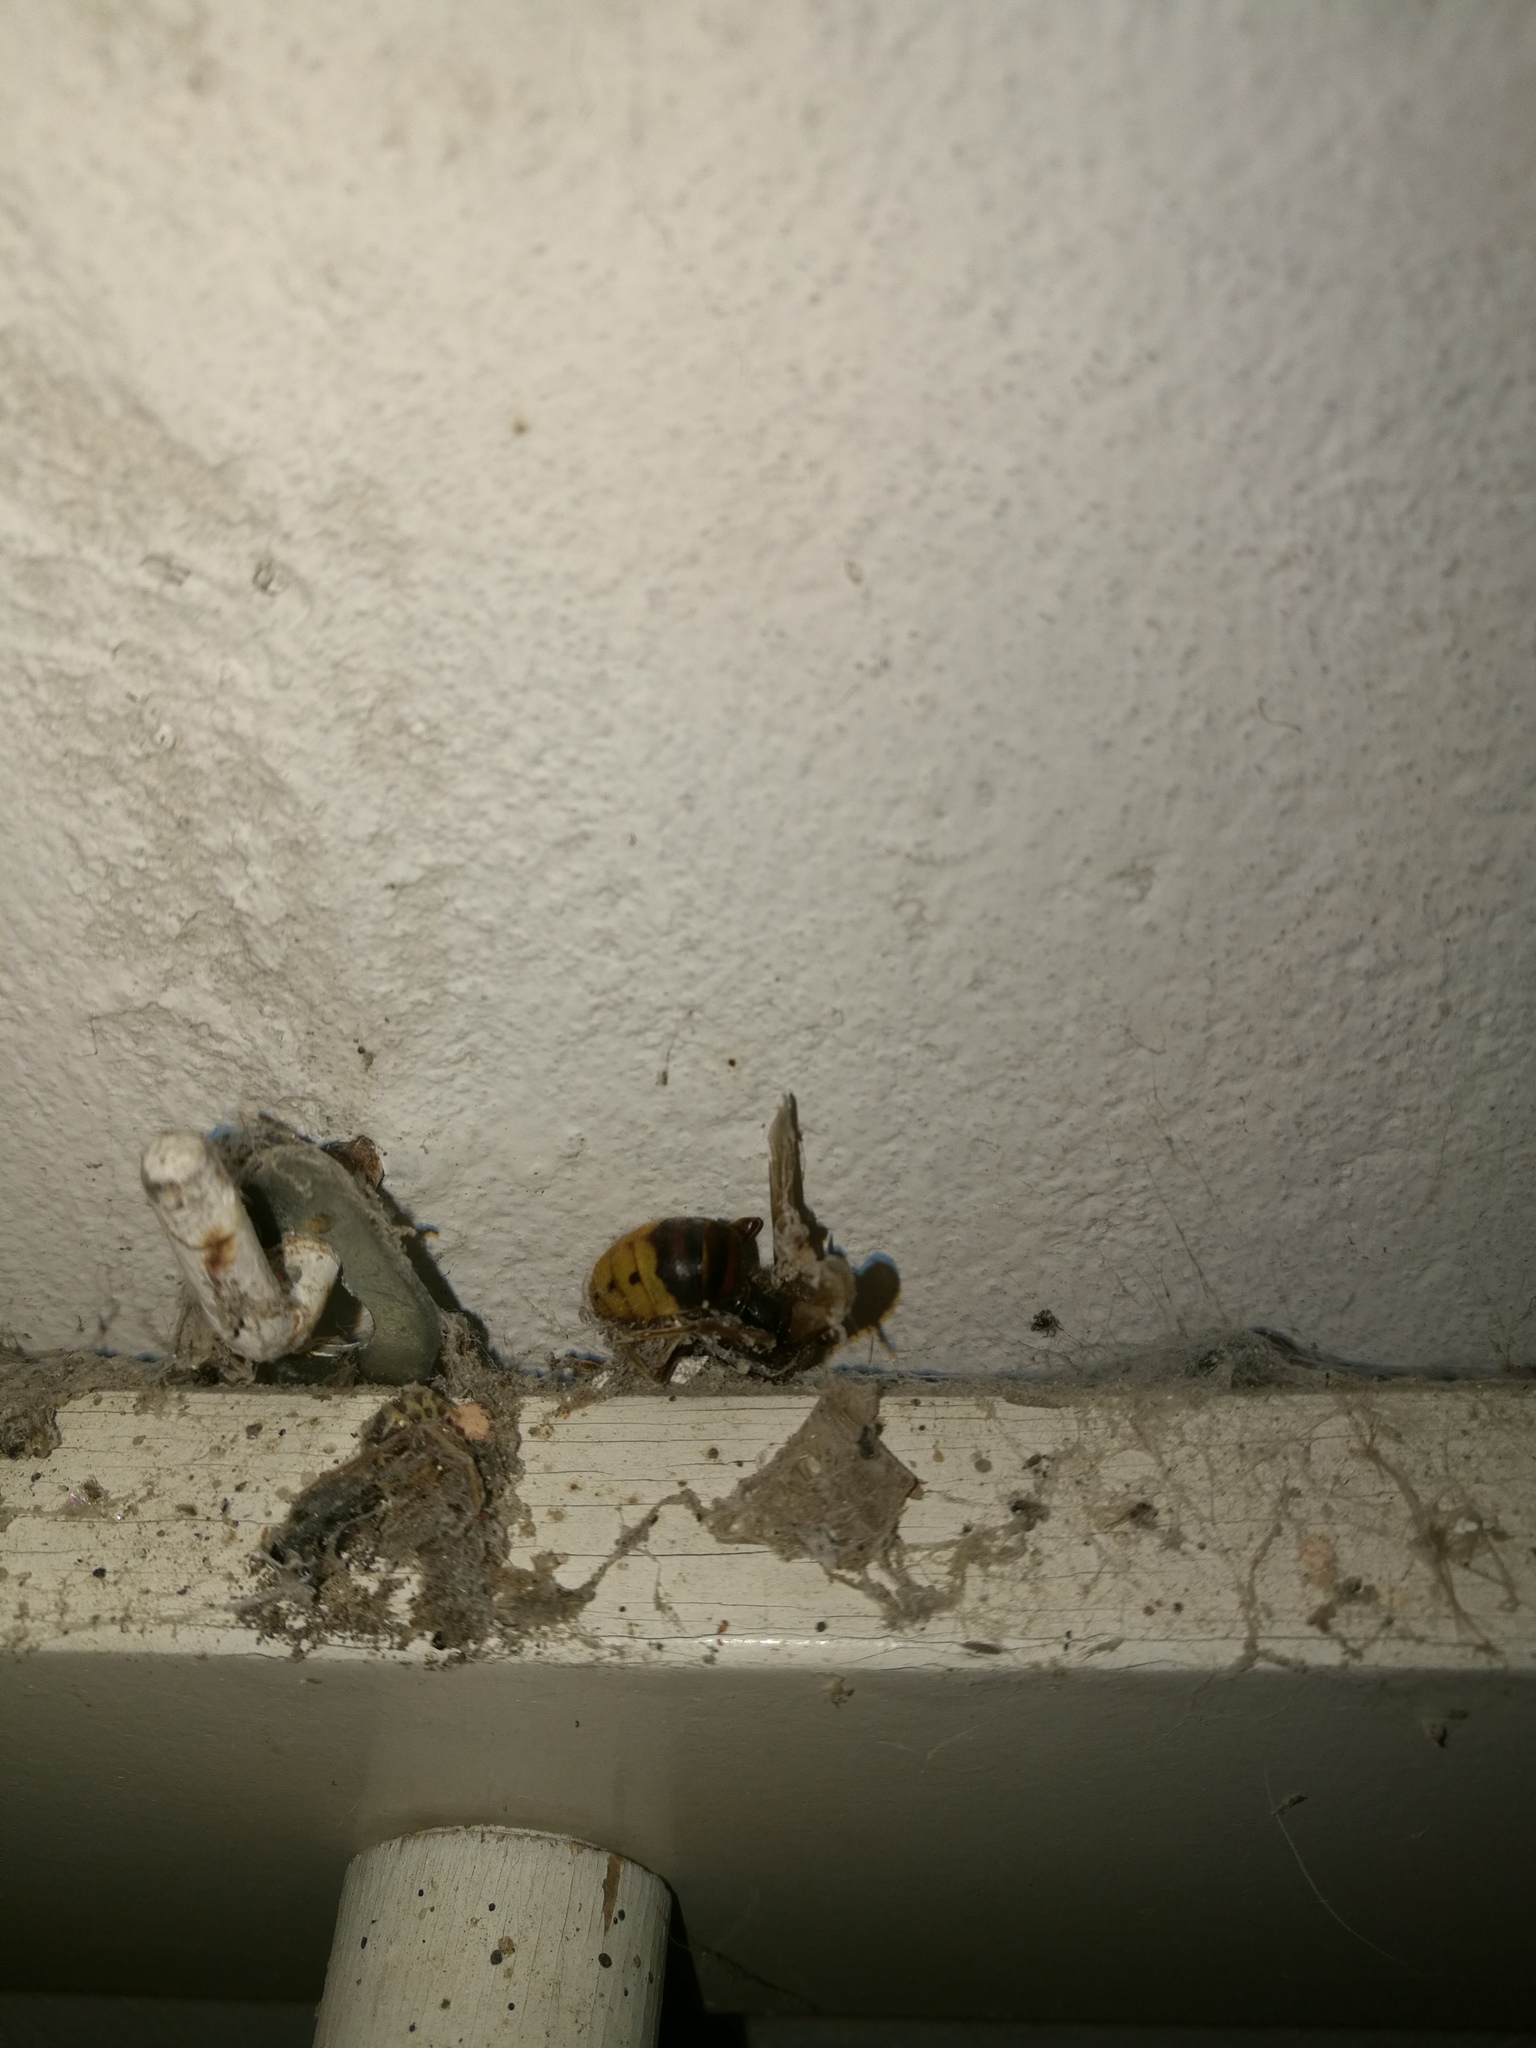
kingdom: Animalia
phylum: Arthropoda
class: Insecta
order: Hymenoptera
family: Vespidae
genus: Vespa
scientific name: Vespa crabro
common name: Hornet
